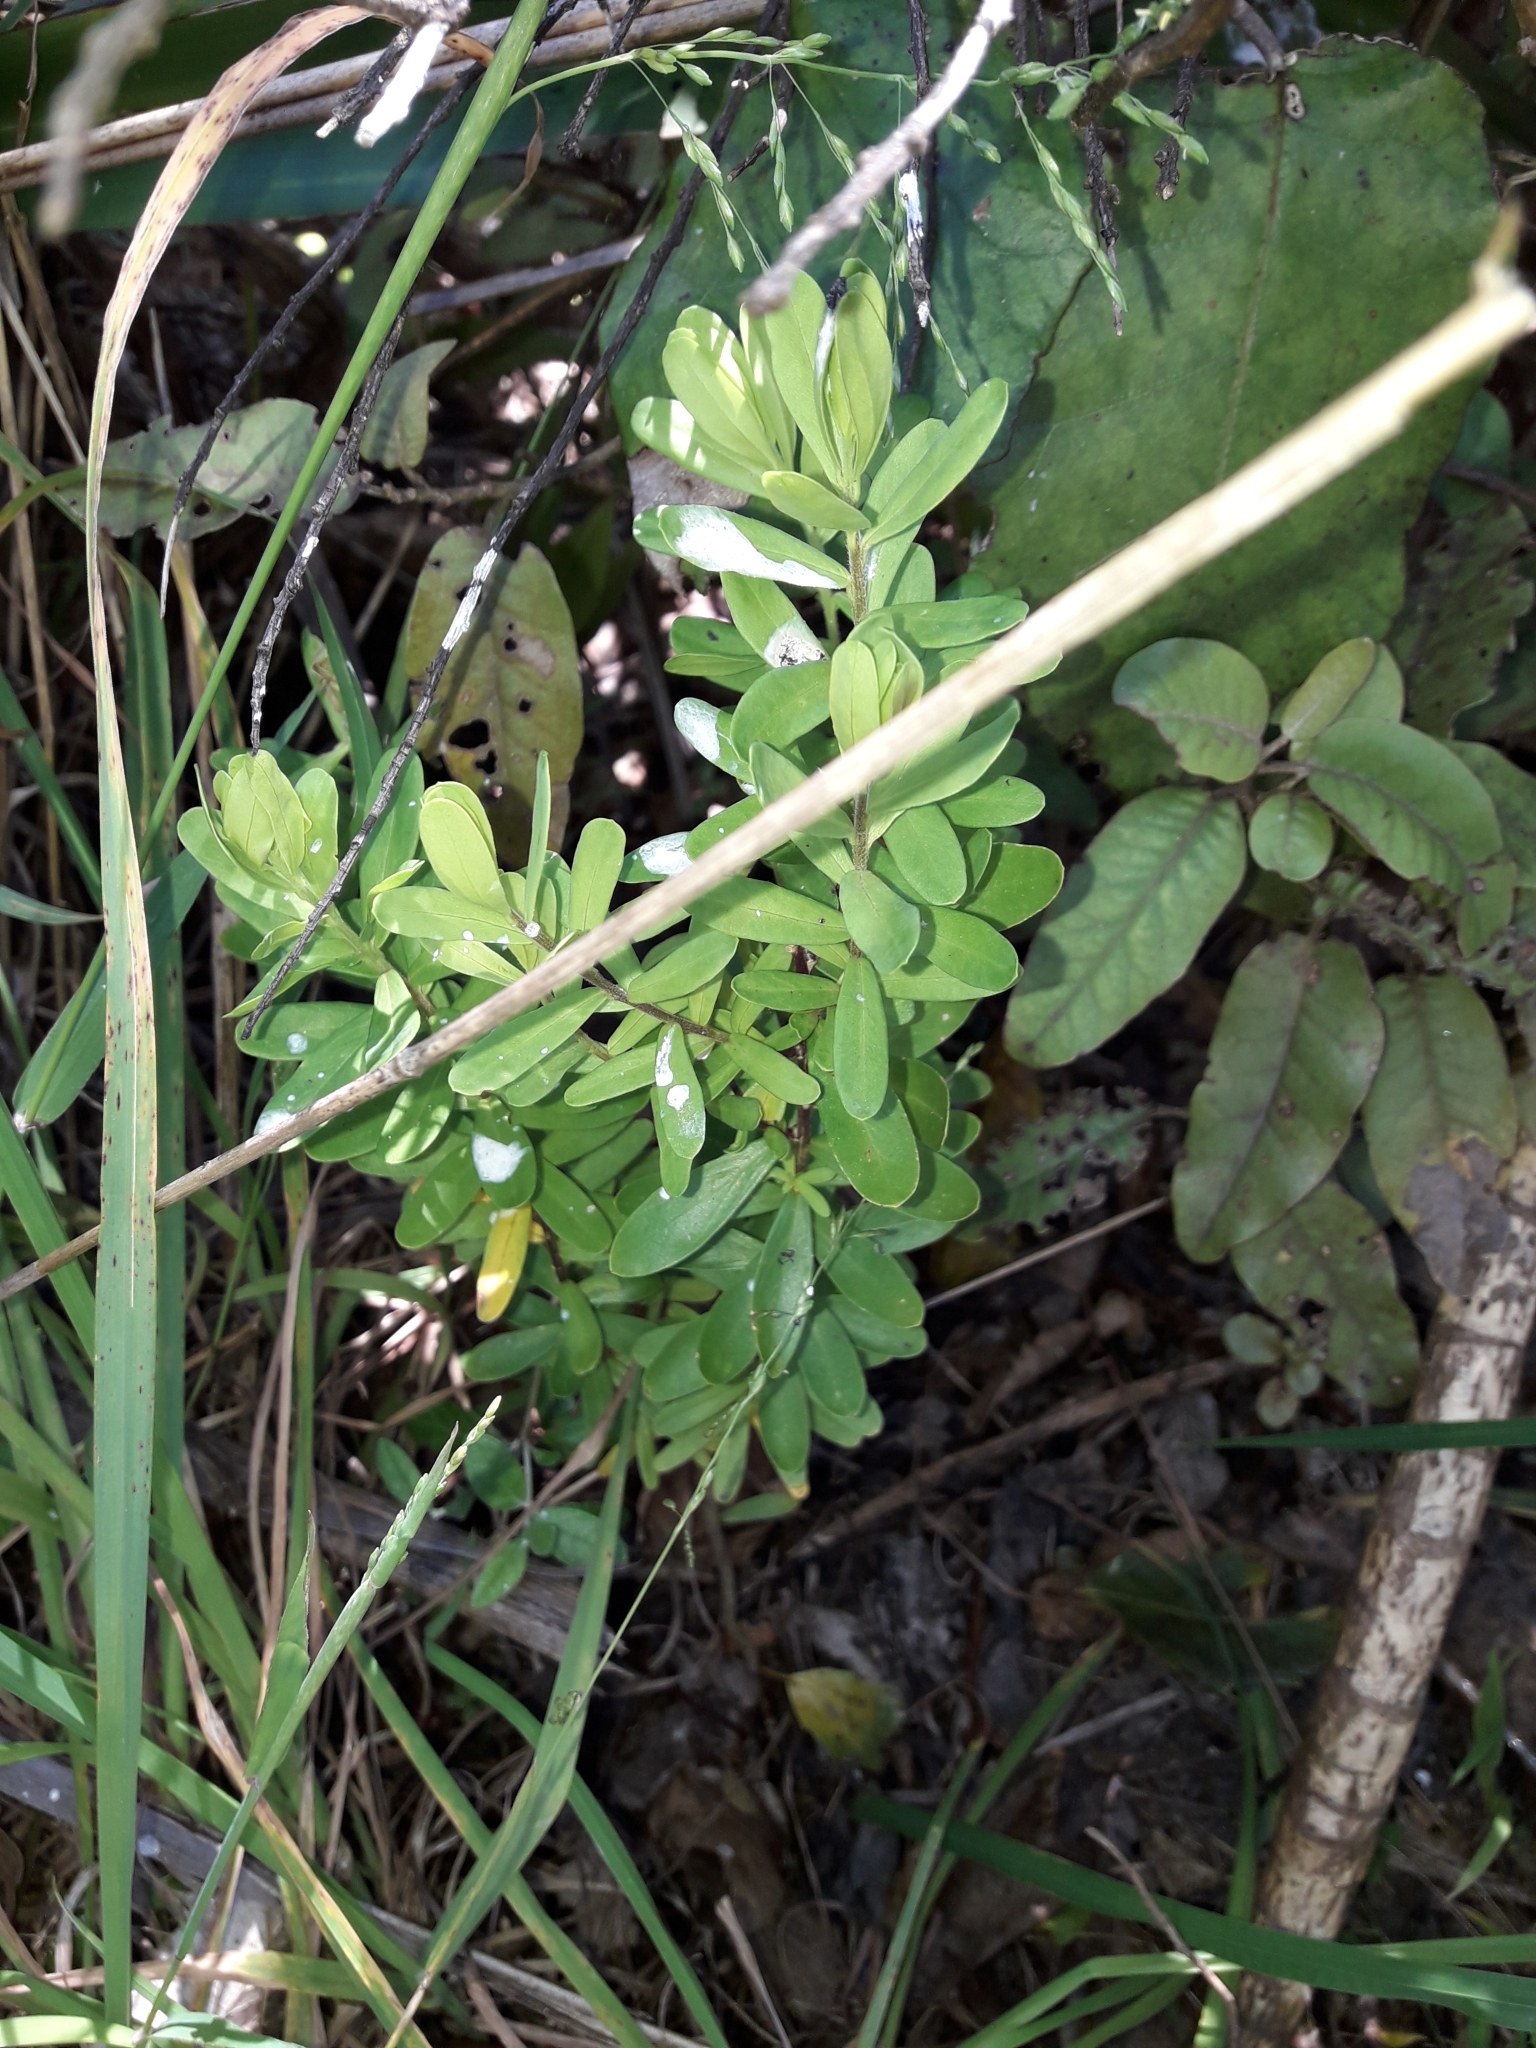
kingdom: Plantae
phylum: Tracheophyta
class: Magnoliopsida
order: Fabales
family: Polygalaceae
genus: Polygala
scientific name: Polygala myrtifolia
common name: Myrtle-leaf milkwort
